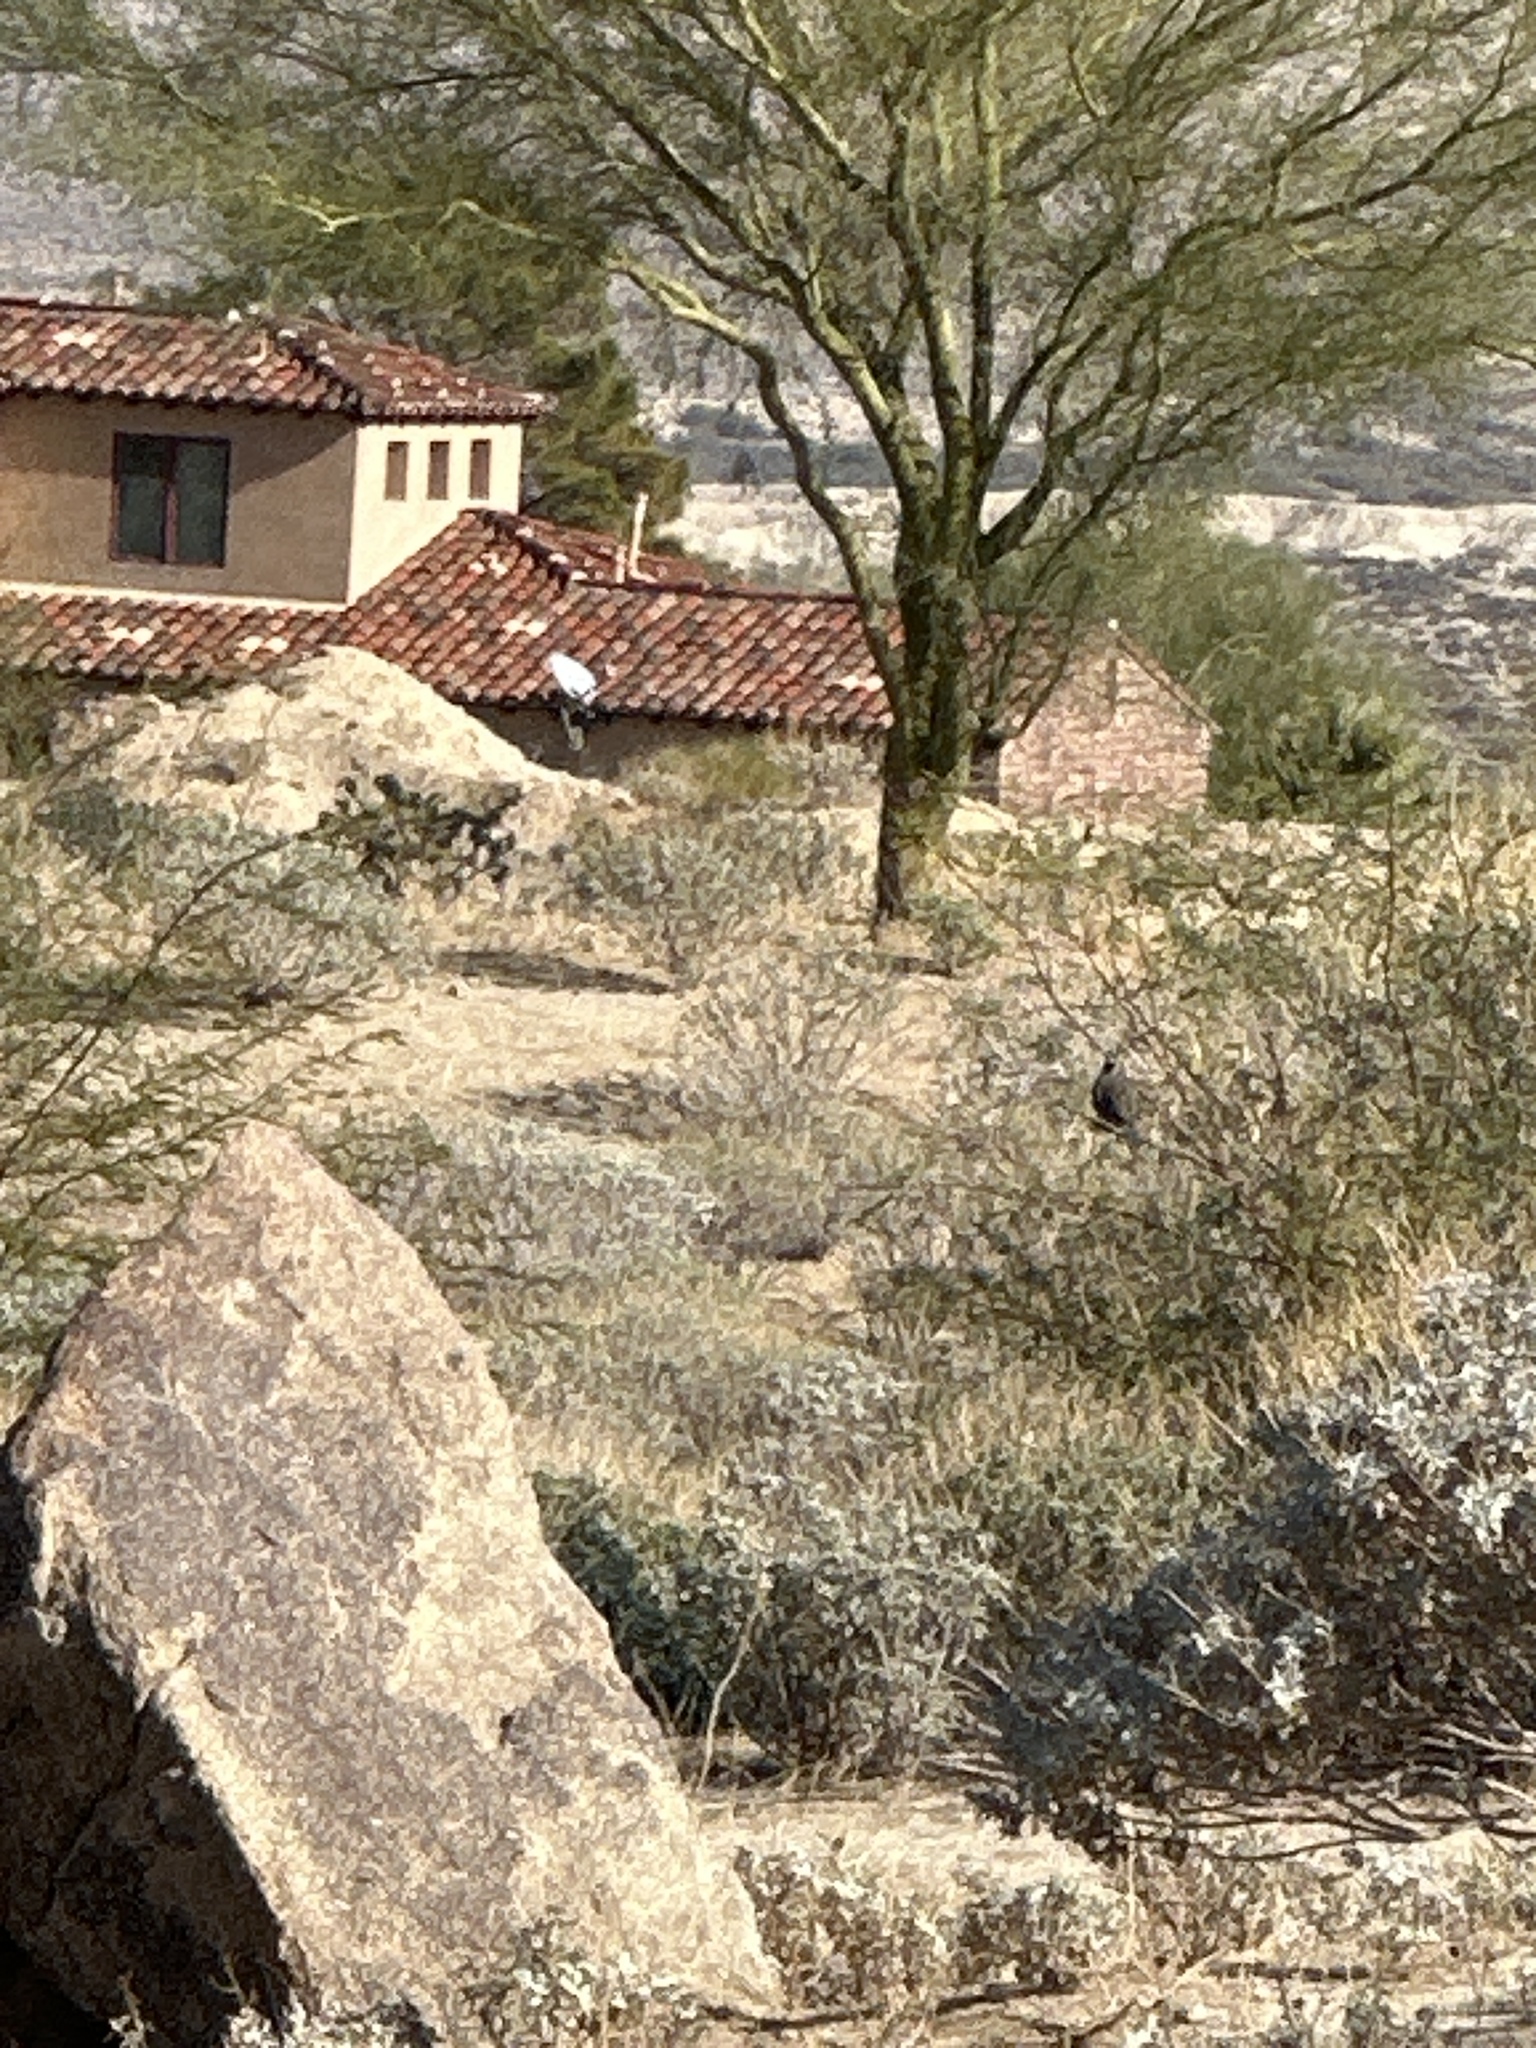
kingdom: Animalia
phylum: Chordata
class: Aves
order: Galliformes
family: Odontophoridae
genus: Callipepla
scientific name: Callipepla californica
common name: California quail
